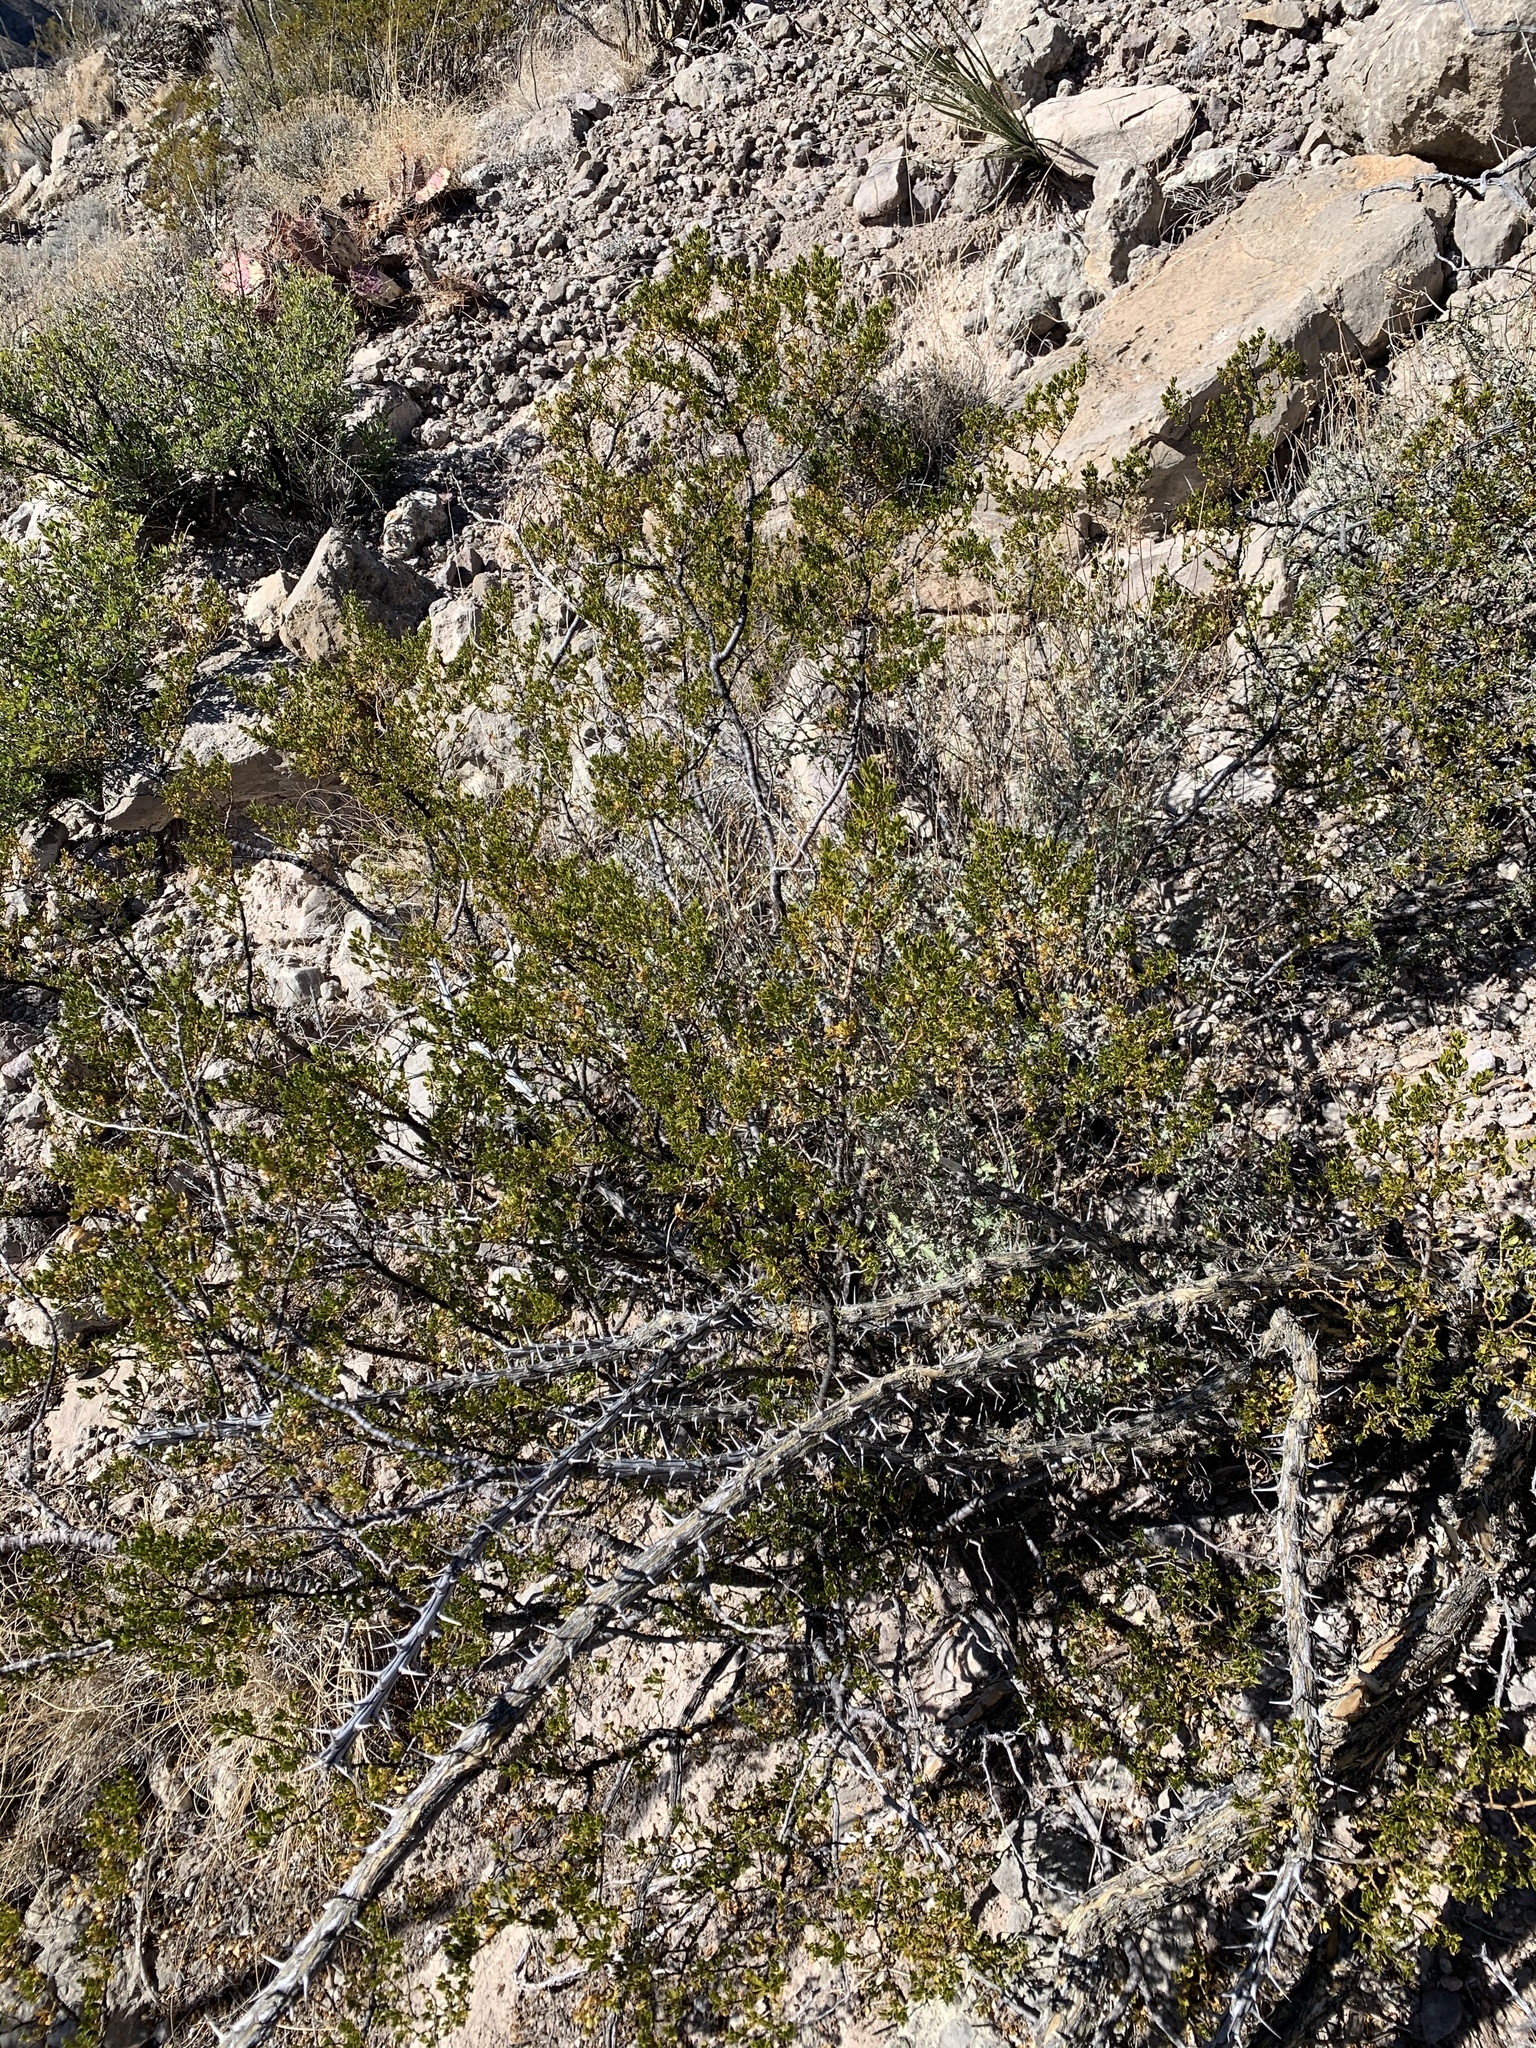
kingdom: Plantae
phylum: Tracheophyta
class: Magnoliopsida
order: Zygophyllales
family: Zygophyllaceae
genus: Larrea
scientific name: Larrea tridentata
